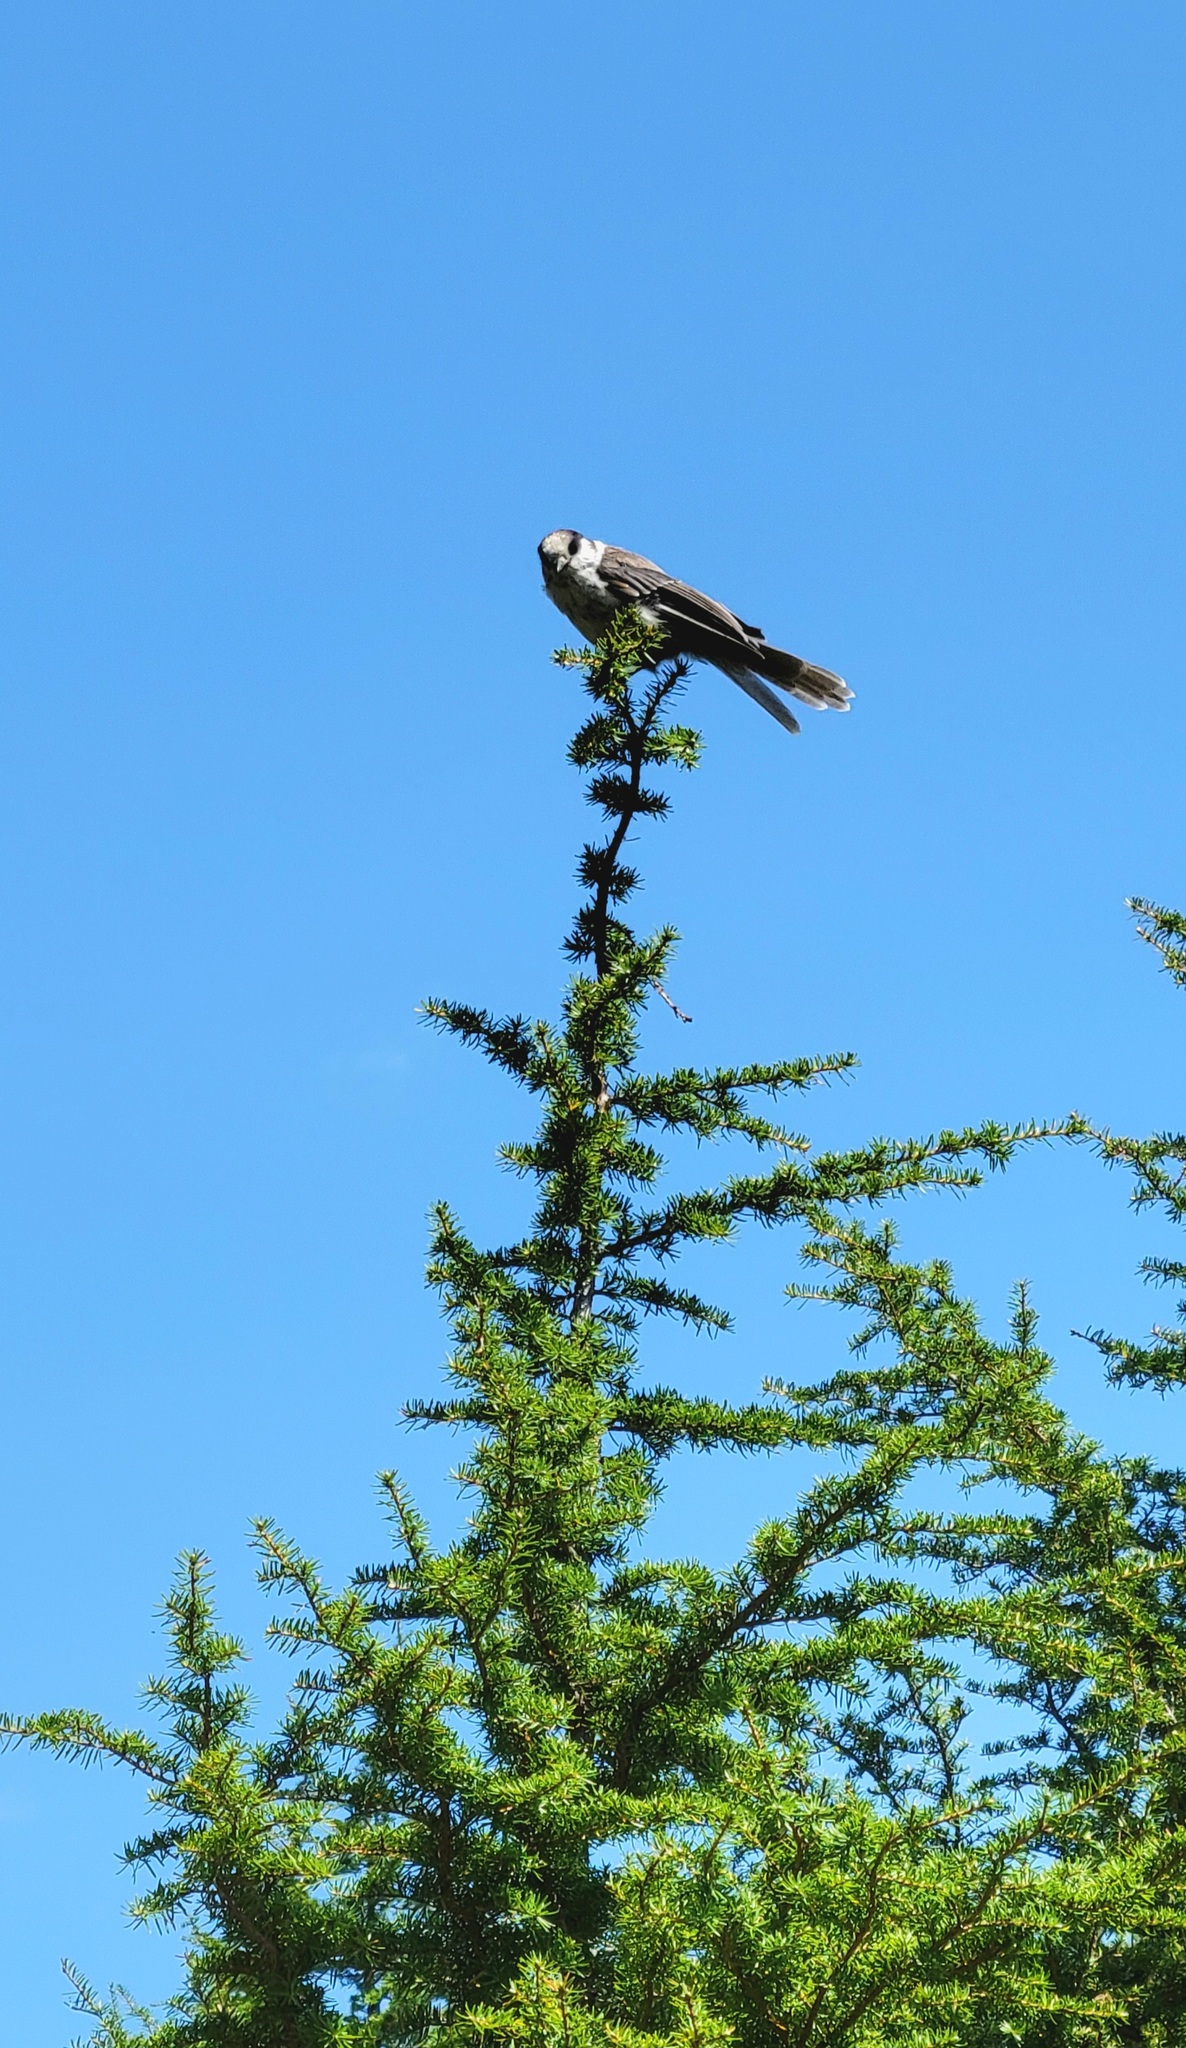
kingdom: Animalia
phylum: Chordata
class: Aves
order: Passeriformes
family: Corvidae
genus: Perisoreus
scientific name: Perisoreus canadensis
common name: Gray jay
